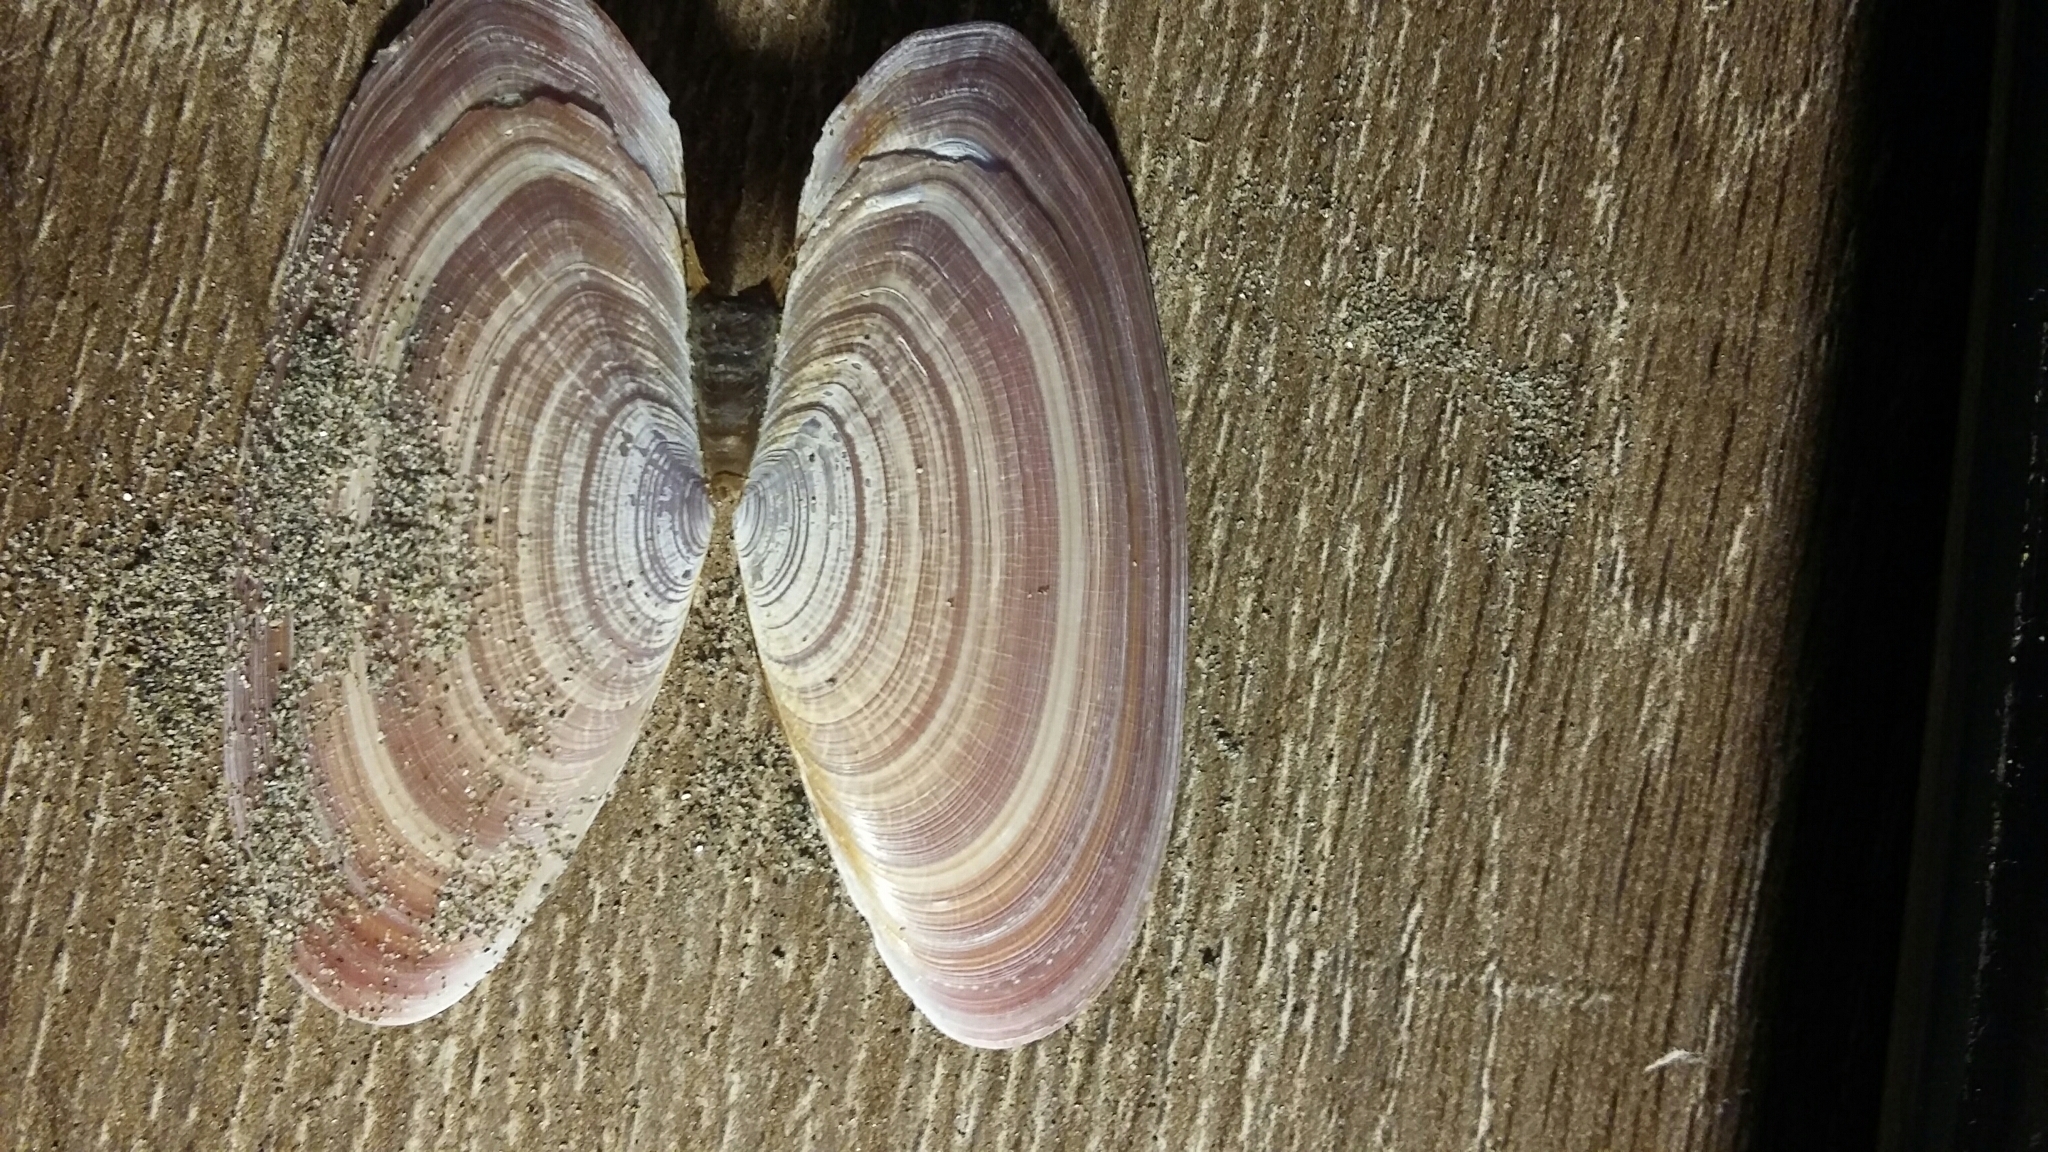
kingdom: Animalia
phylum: Mollusca
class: Bivalvia
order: Cardiida
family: Psammobiidae
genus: Gari
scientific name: Gari lineolata
